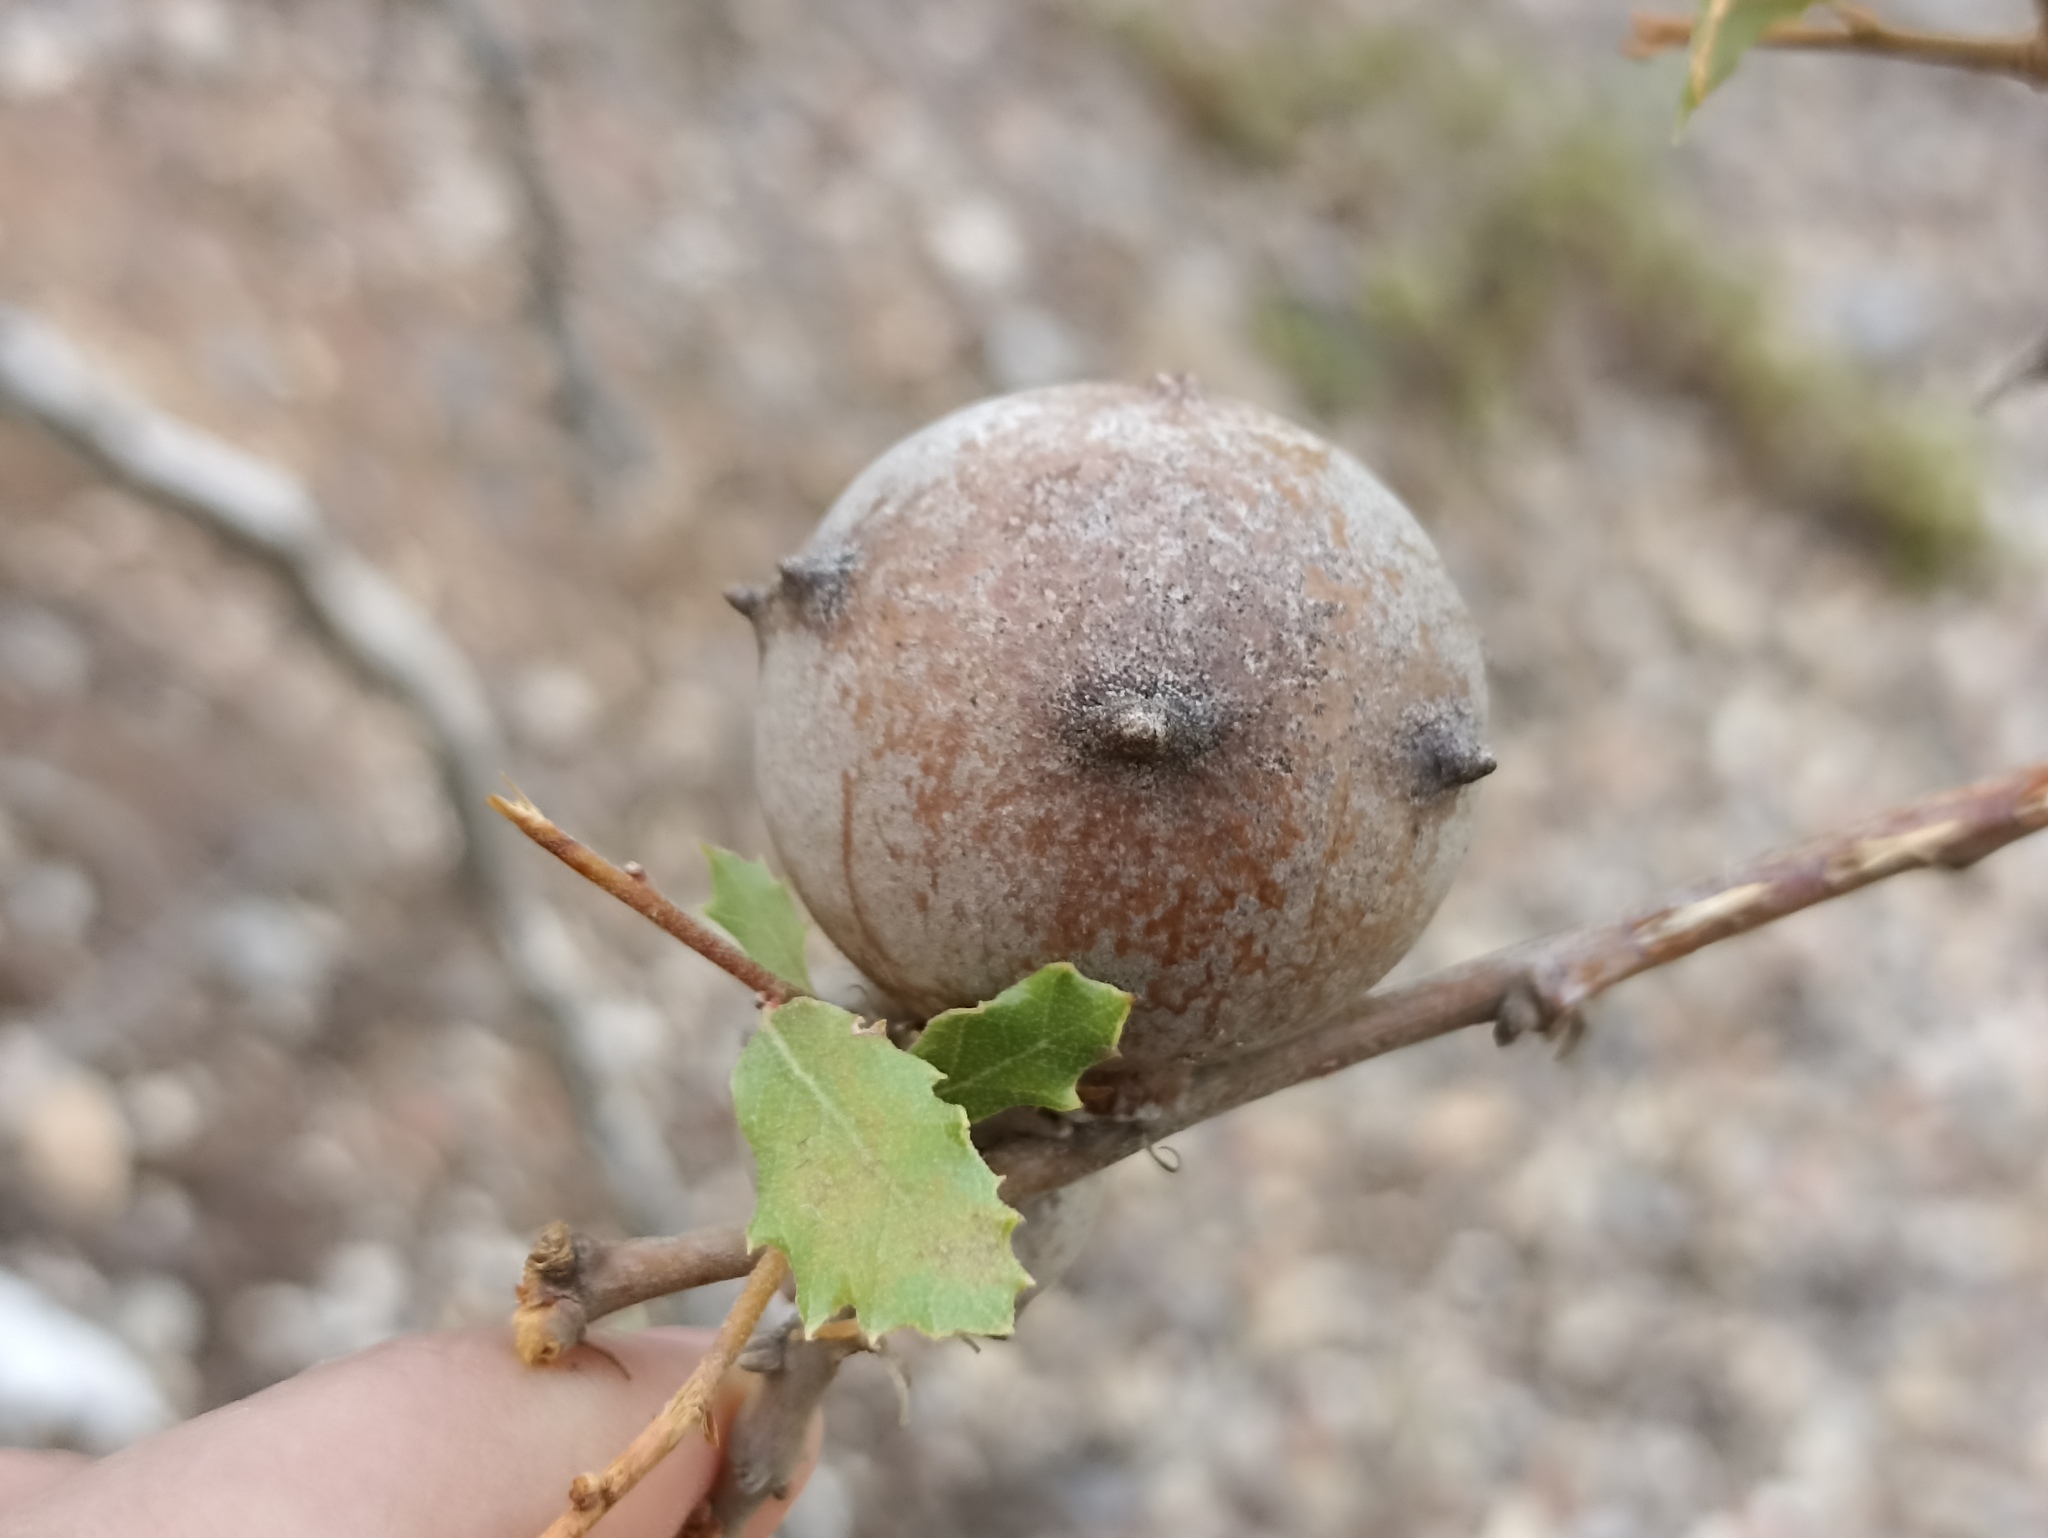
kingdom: Animalia
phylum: Arthropoda
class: Insecta
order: Hymenoptera
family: Cynipidae
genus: Andricus
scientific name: Andricus quercustozae
